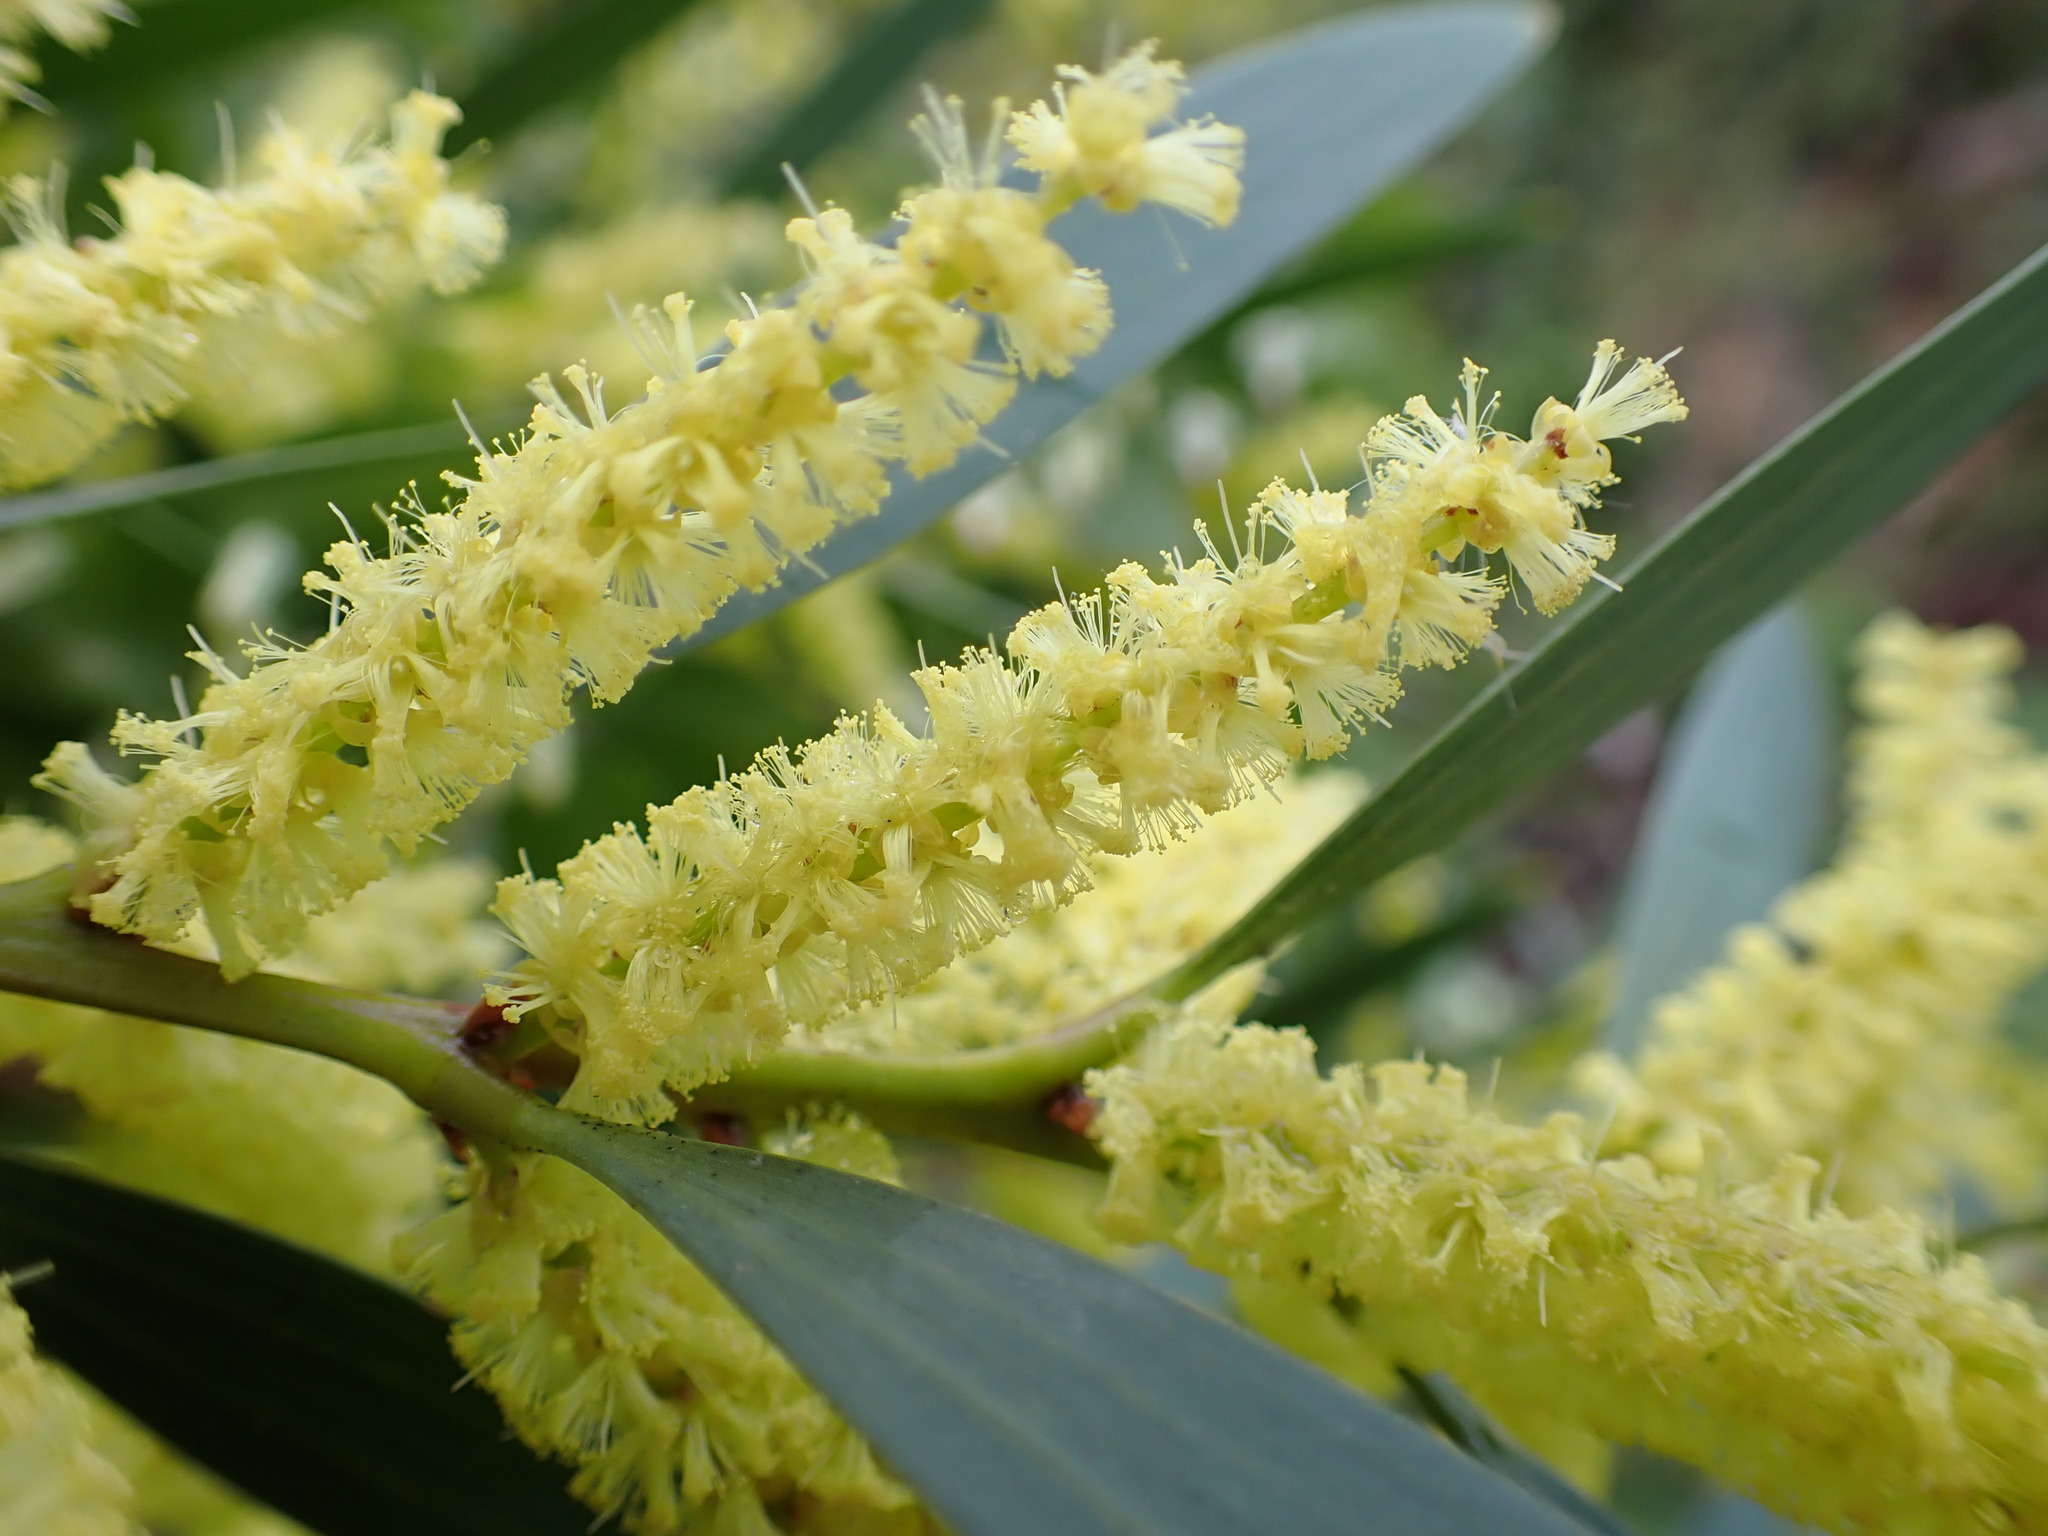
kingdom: Plantae
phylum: Tracheophyta
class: Magnoliopsida
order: Fabales
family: Fabaceae
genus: Acacia
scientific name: Acacia longifolia
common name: Sydney golden wattle
